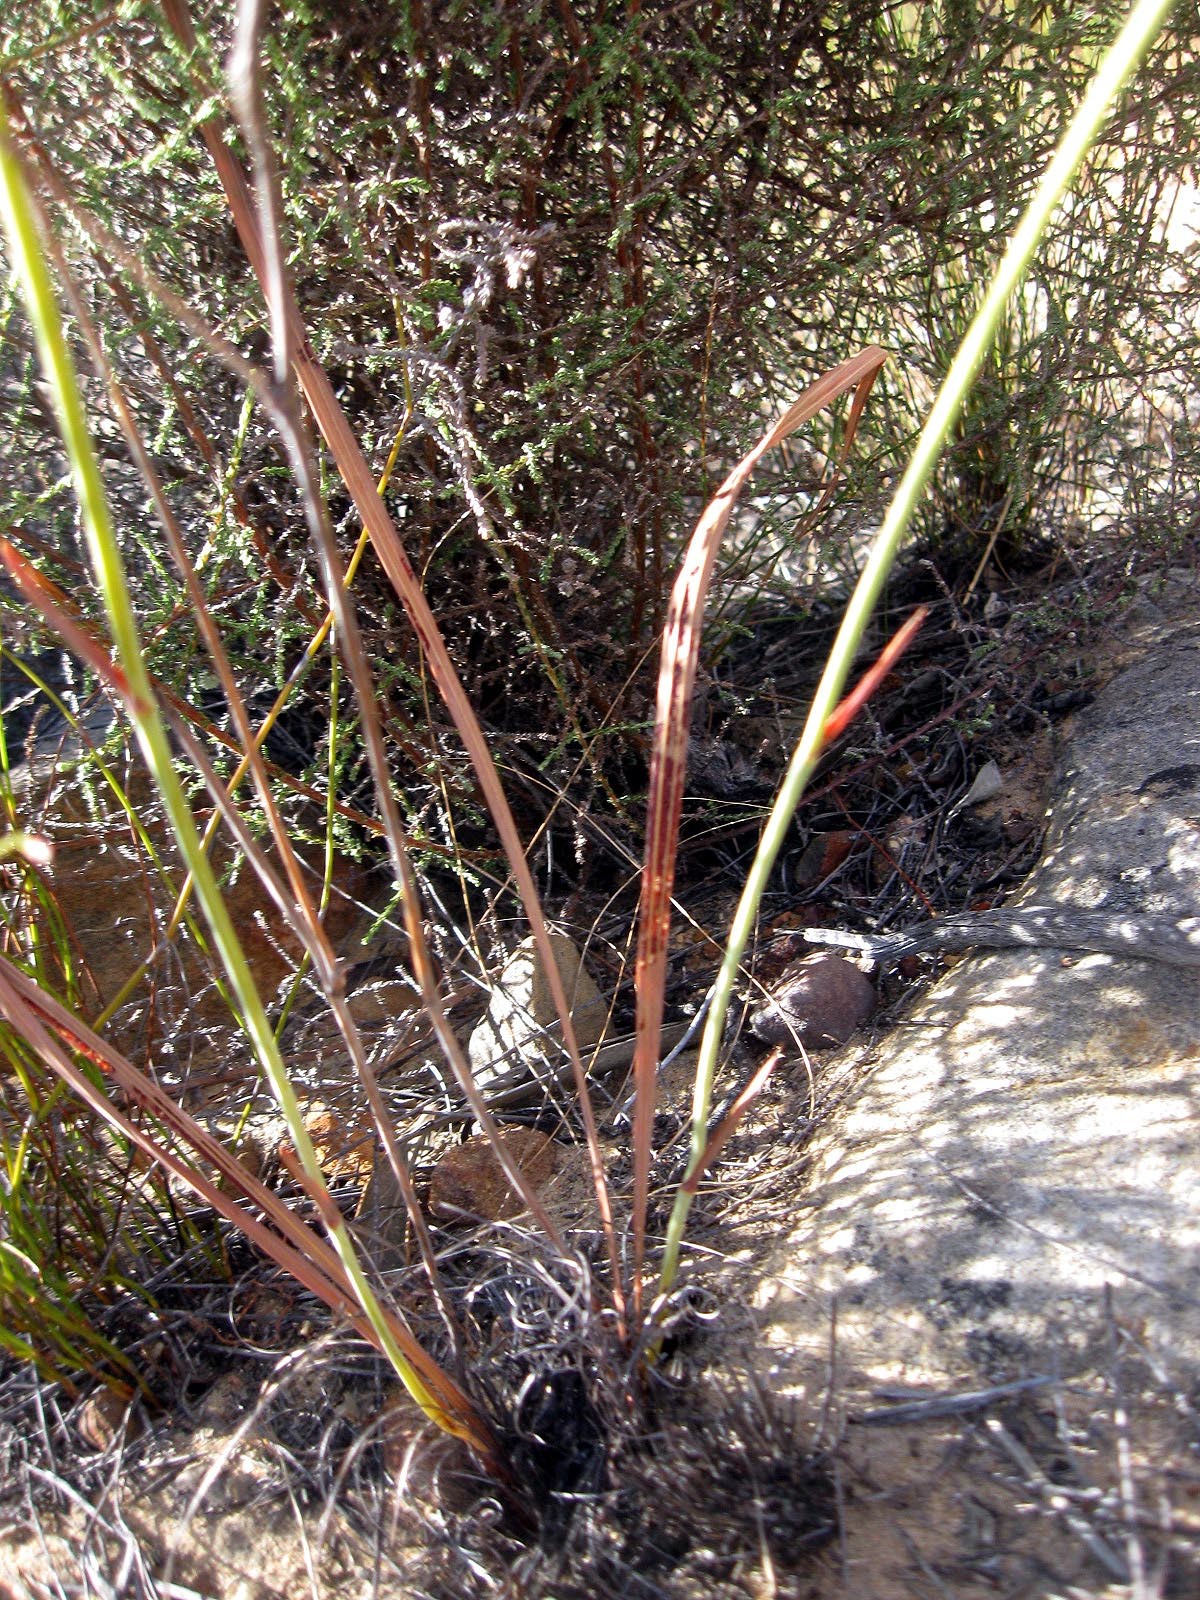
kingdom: Plantae
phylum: Tracheophyta
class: Liliopsida
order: Asparagales
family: Iridaceae
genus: Tritoniopsis
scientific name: Tritoniopsis ramosa
